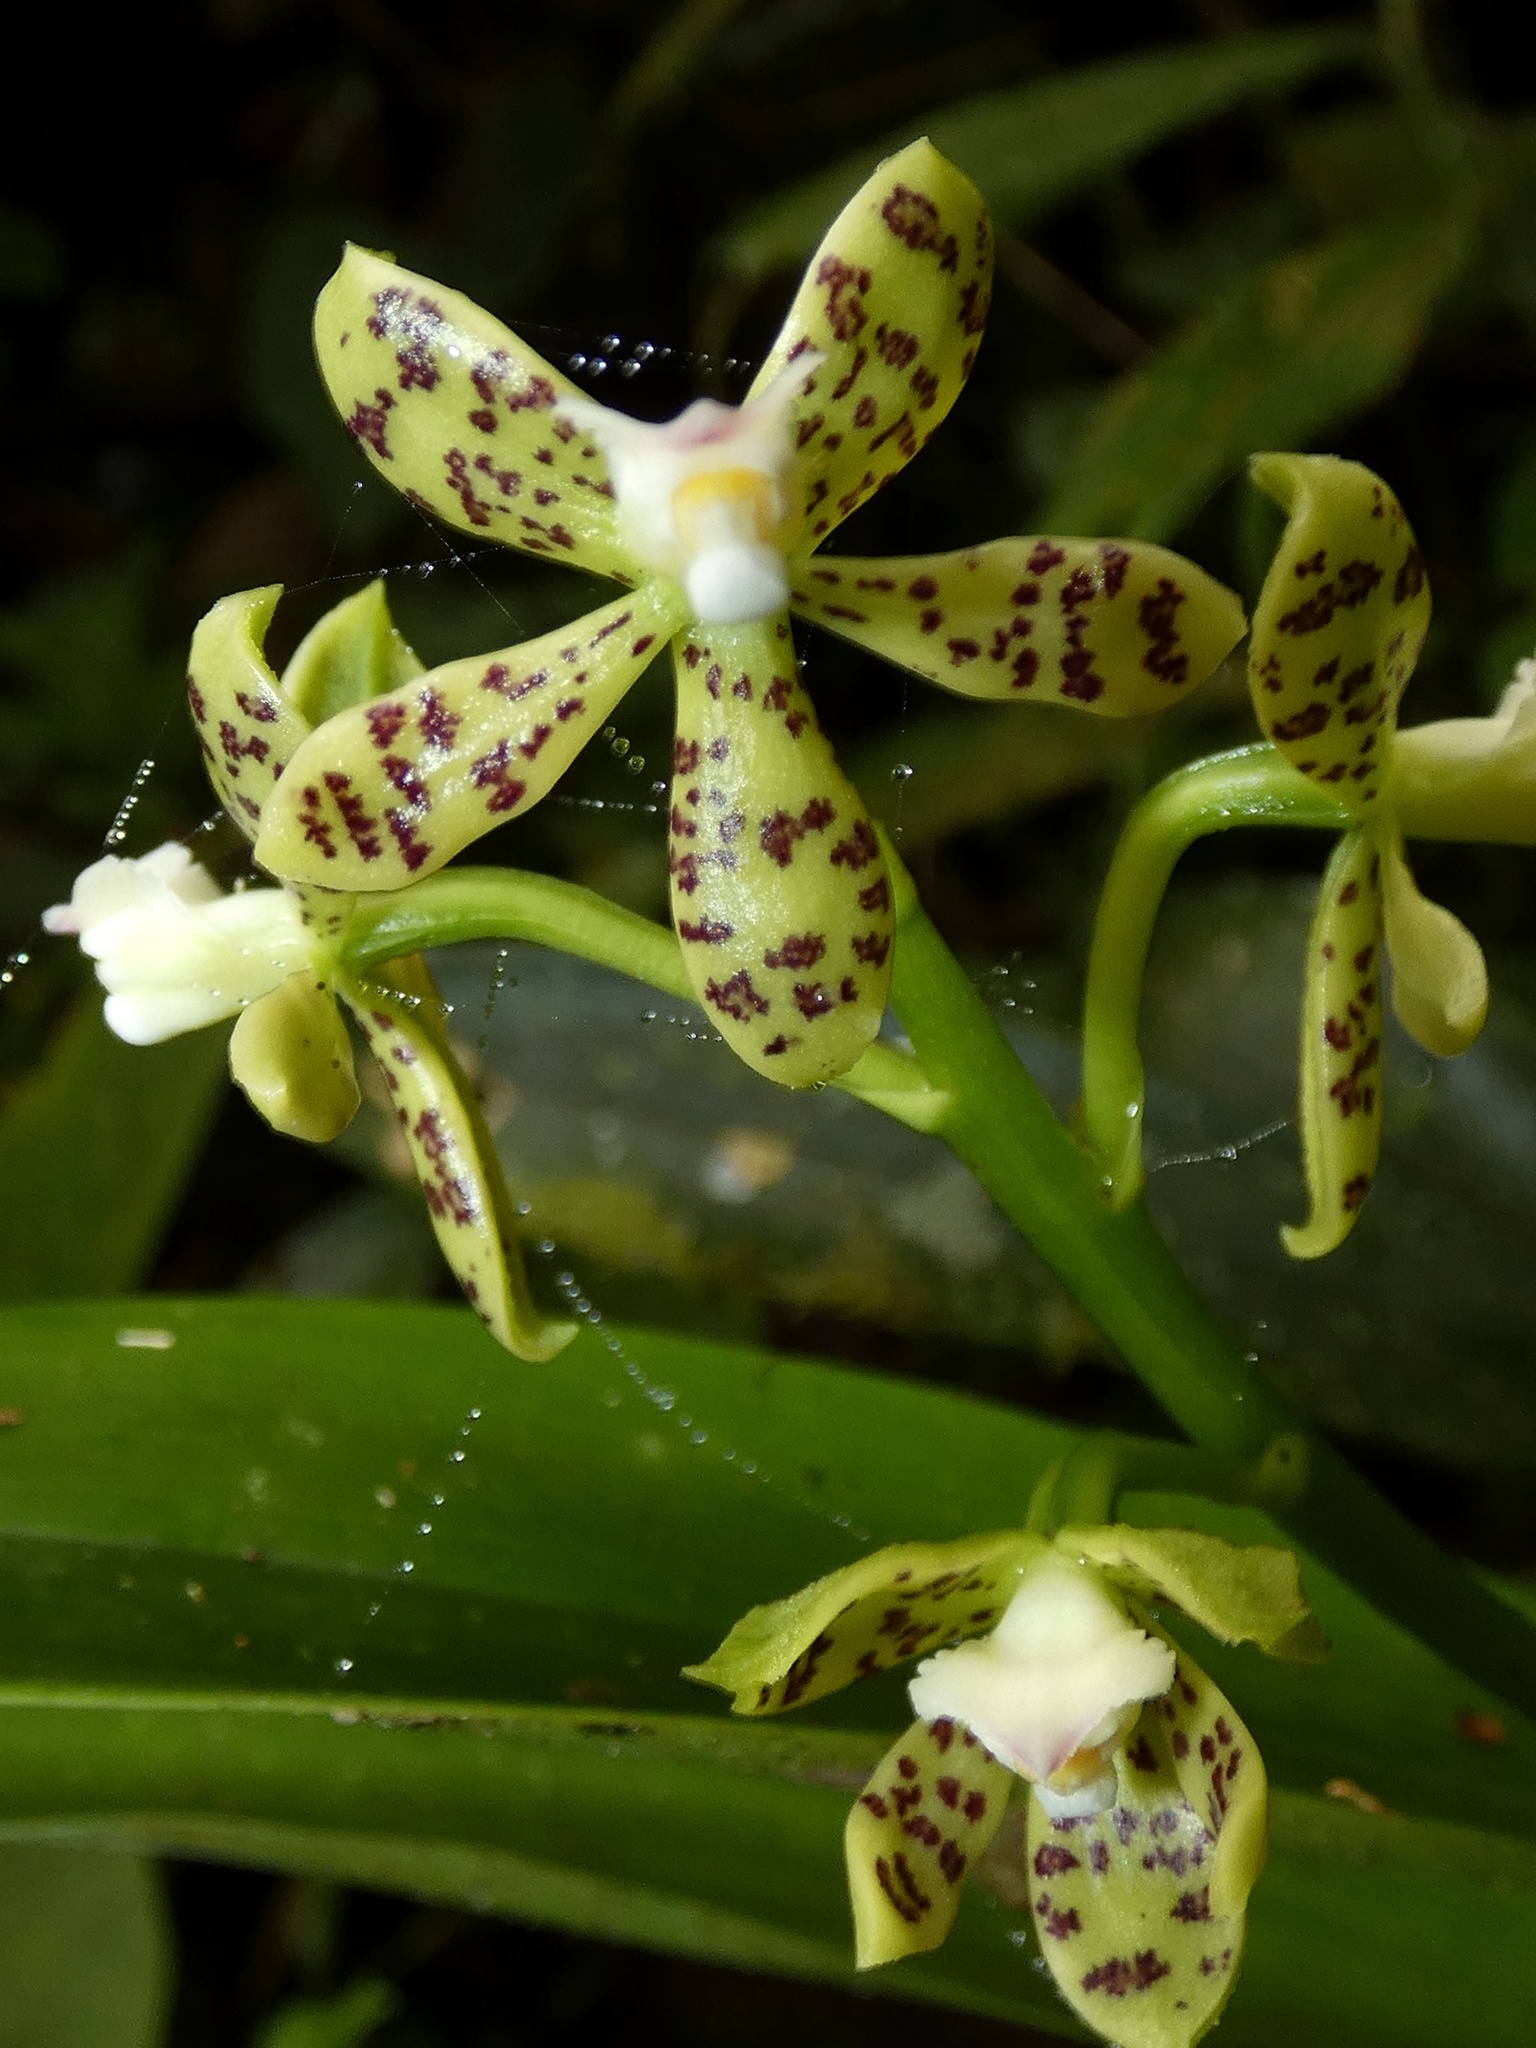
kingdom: Plantae
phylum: Tracheophyta
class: Liliopsida
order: Asparagales
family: Orchidaceae
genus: Prosthechea
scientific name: Prosthechea crassilabia
